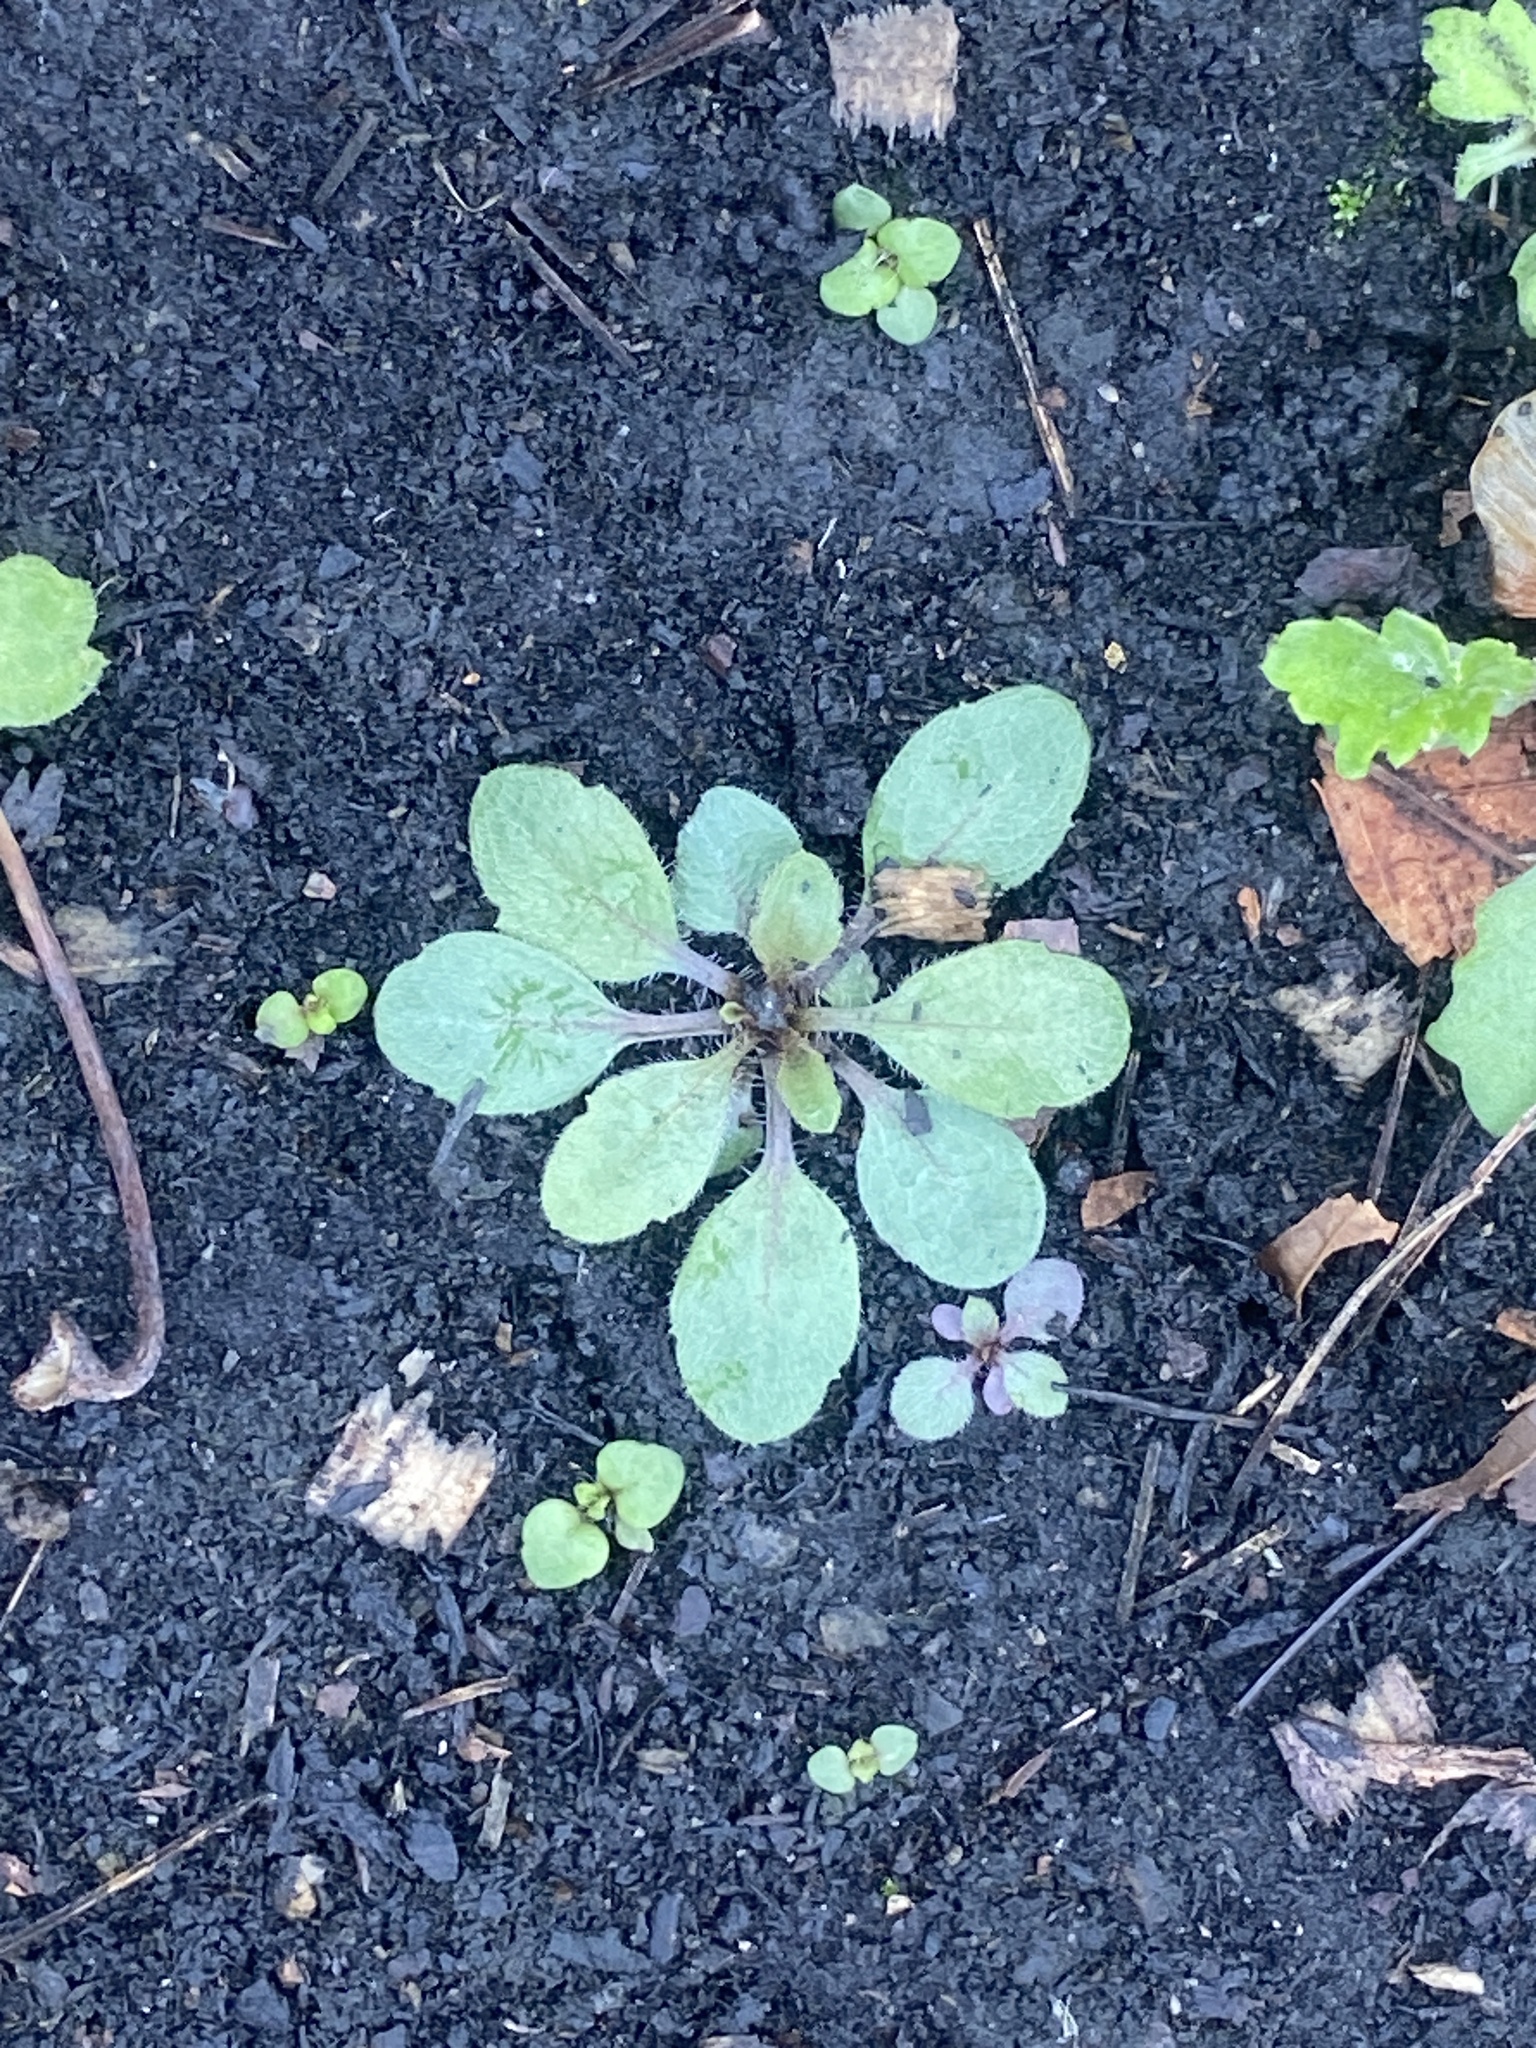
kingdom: Plantae
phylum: Tracheophyta
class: Magnoliopsida
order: Asterales
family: Asteraceae
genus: Erigeron
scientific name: Erigeron canadensis
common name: Canadian fleabane
